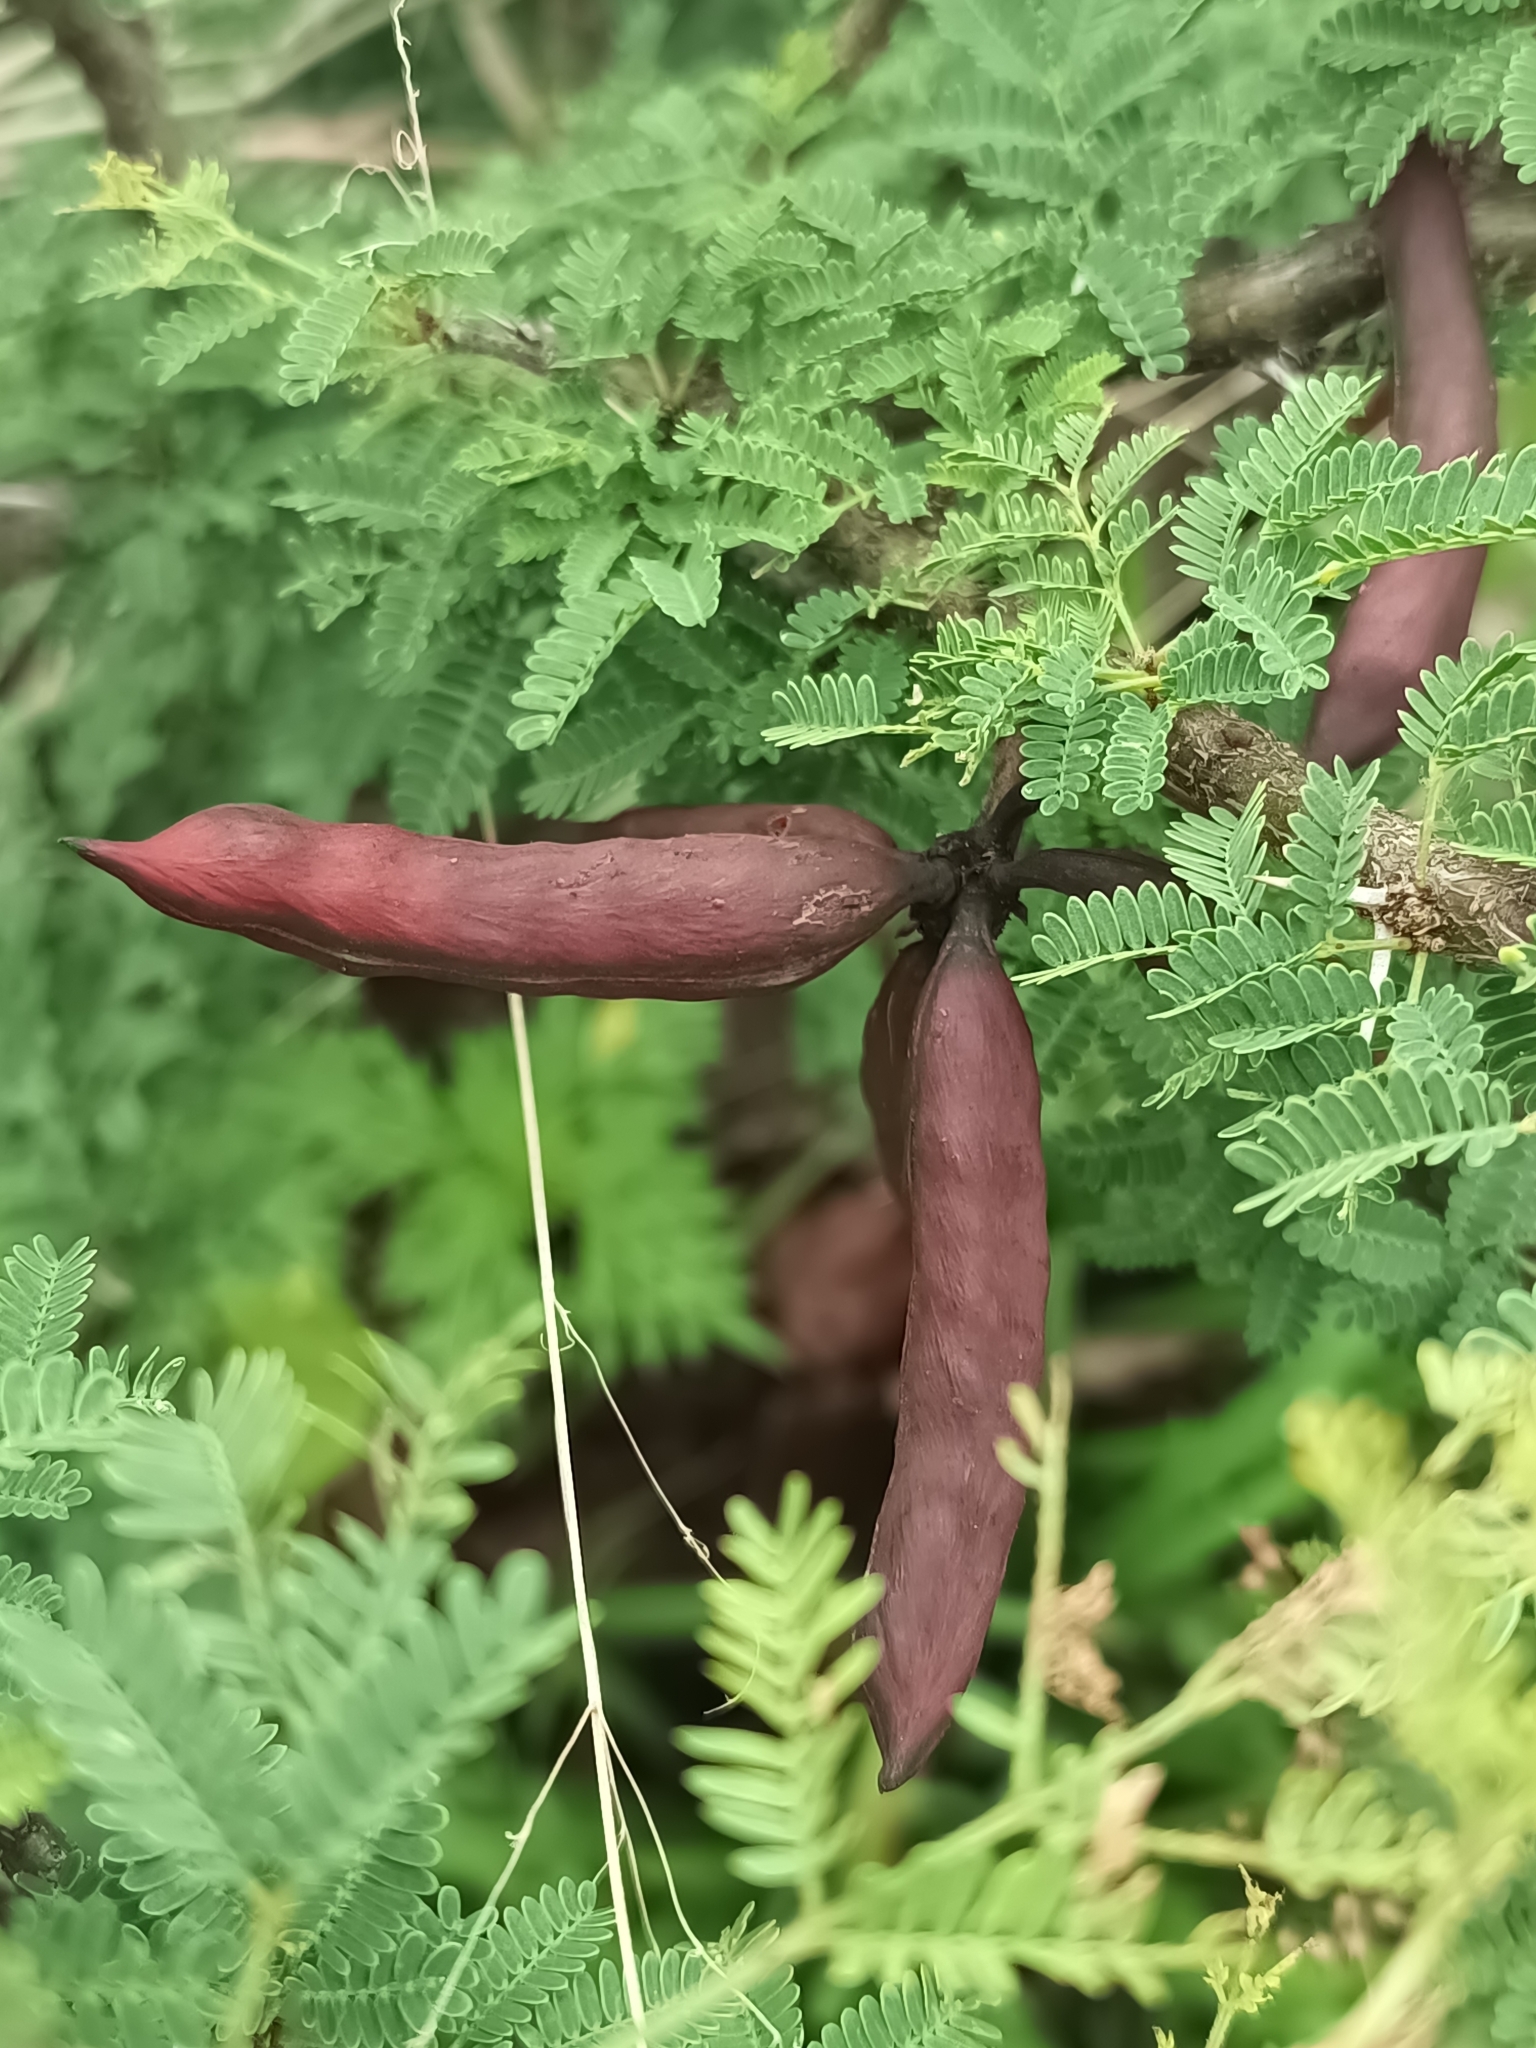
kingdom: Plantae
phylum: Tracheophyta
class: Magnoliopsida
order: Fabales
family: Fabaceae
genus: Vachellia
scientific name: Vachellia farnesiana
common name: Sweet acacia
